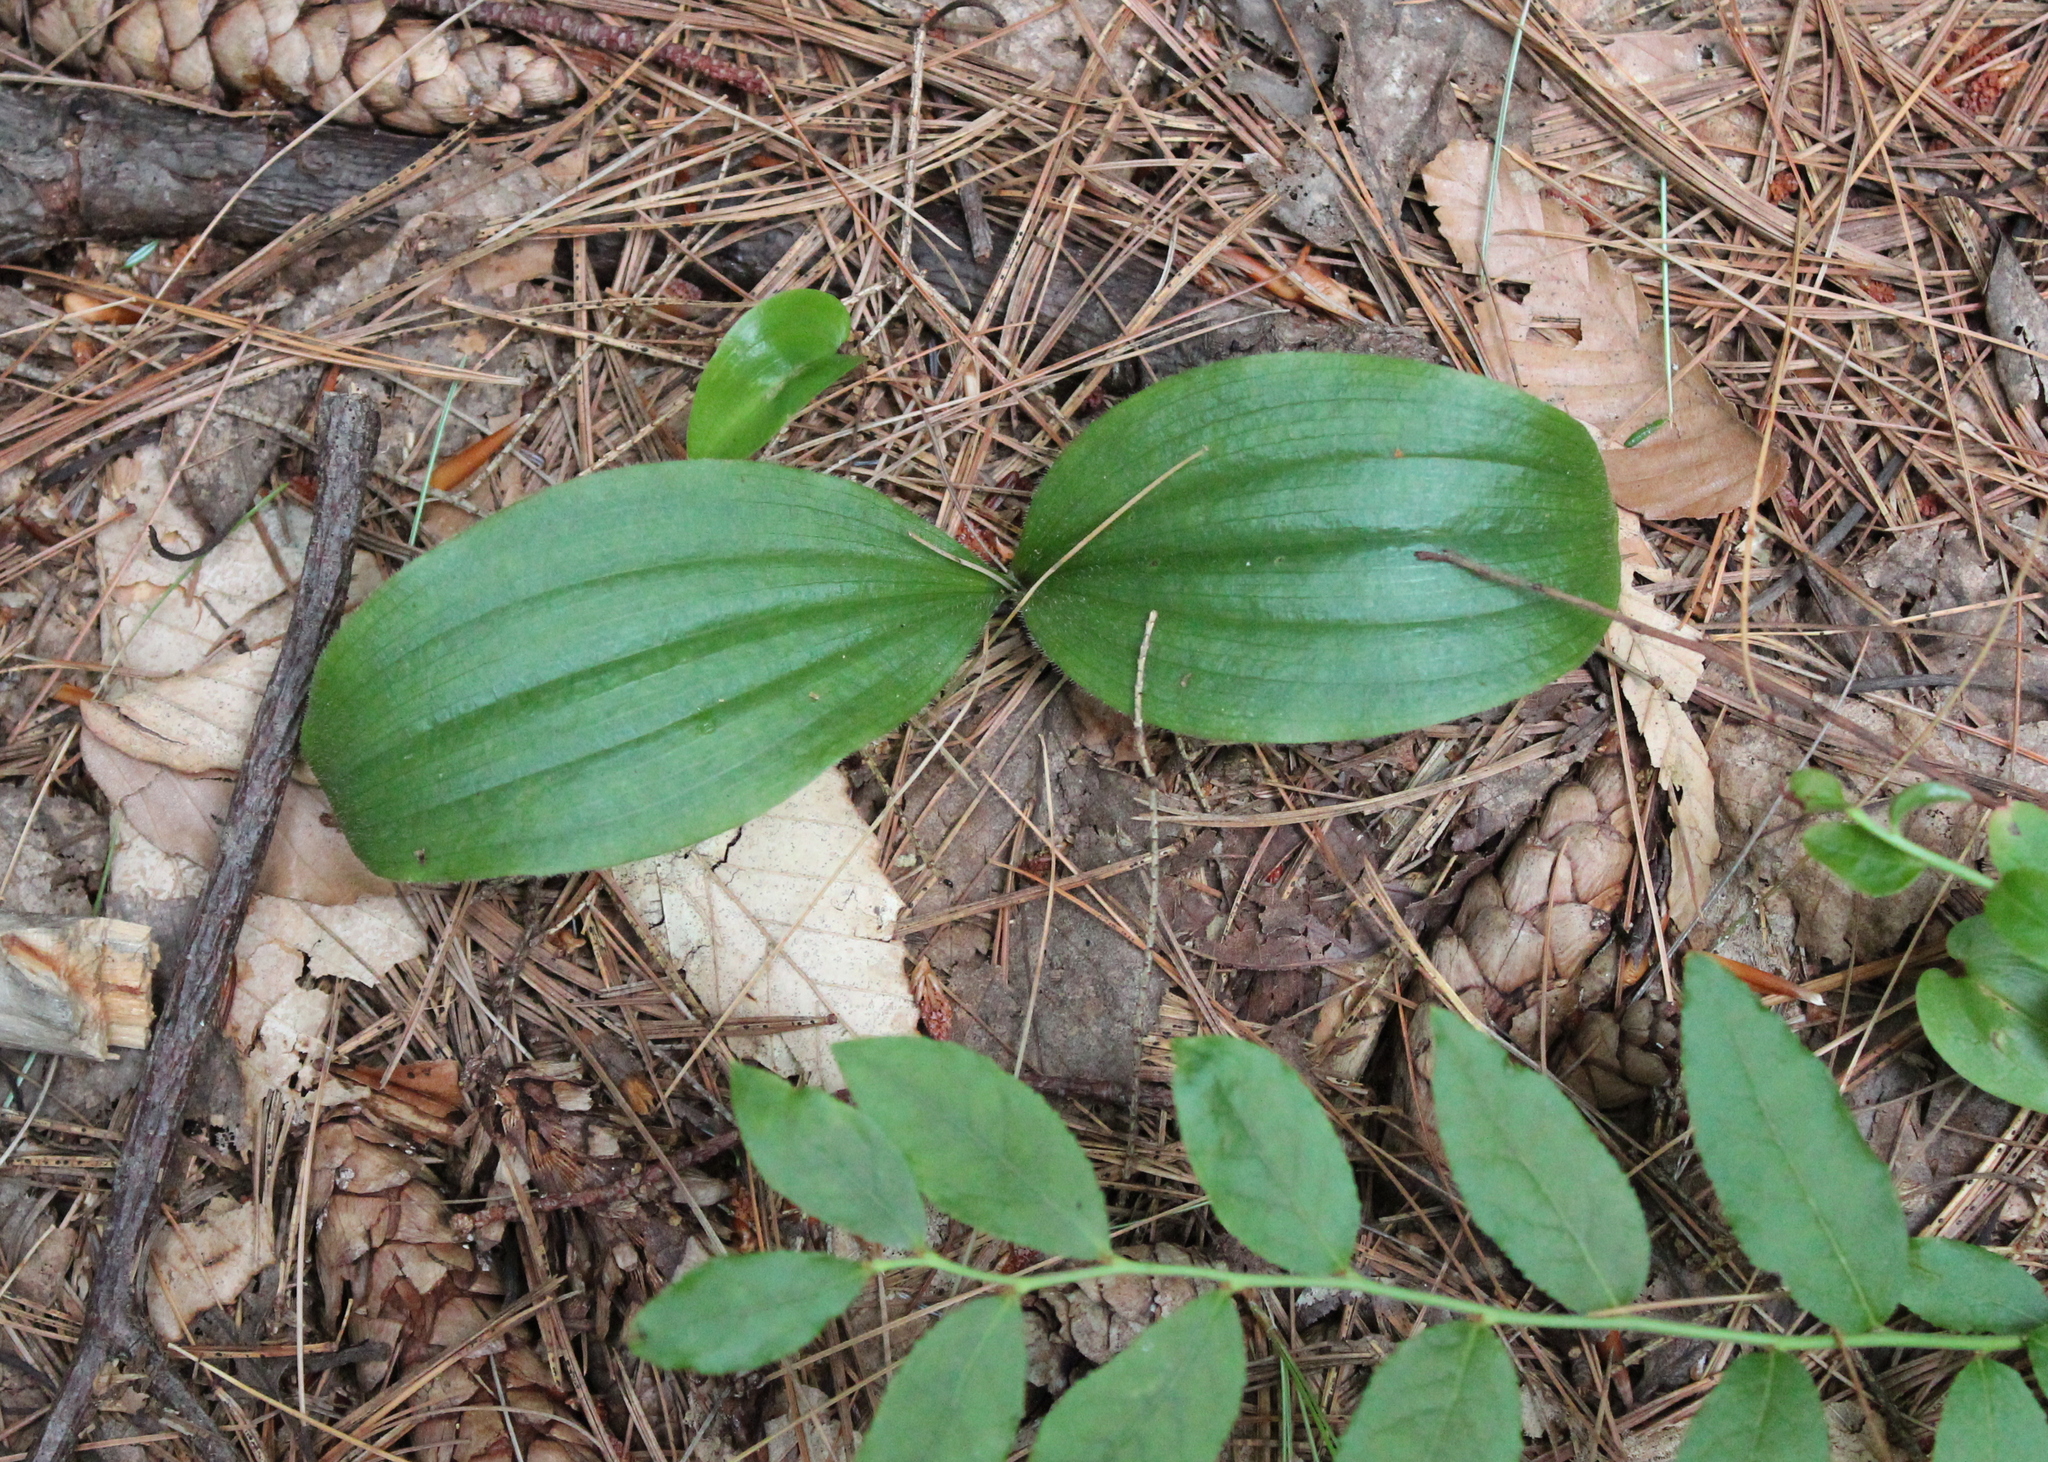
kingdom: Plantae
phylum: Tracheophyta
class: Liliopsida
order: Asparagales
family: Orchidaceae
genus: Cypripedium
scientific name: Cypripedium acaule
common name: Pink lady's-slipper
